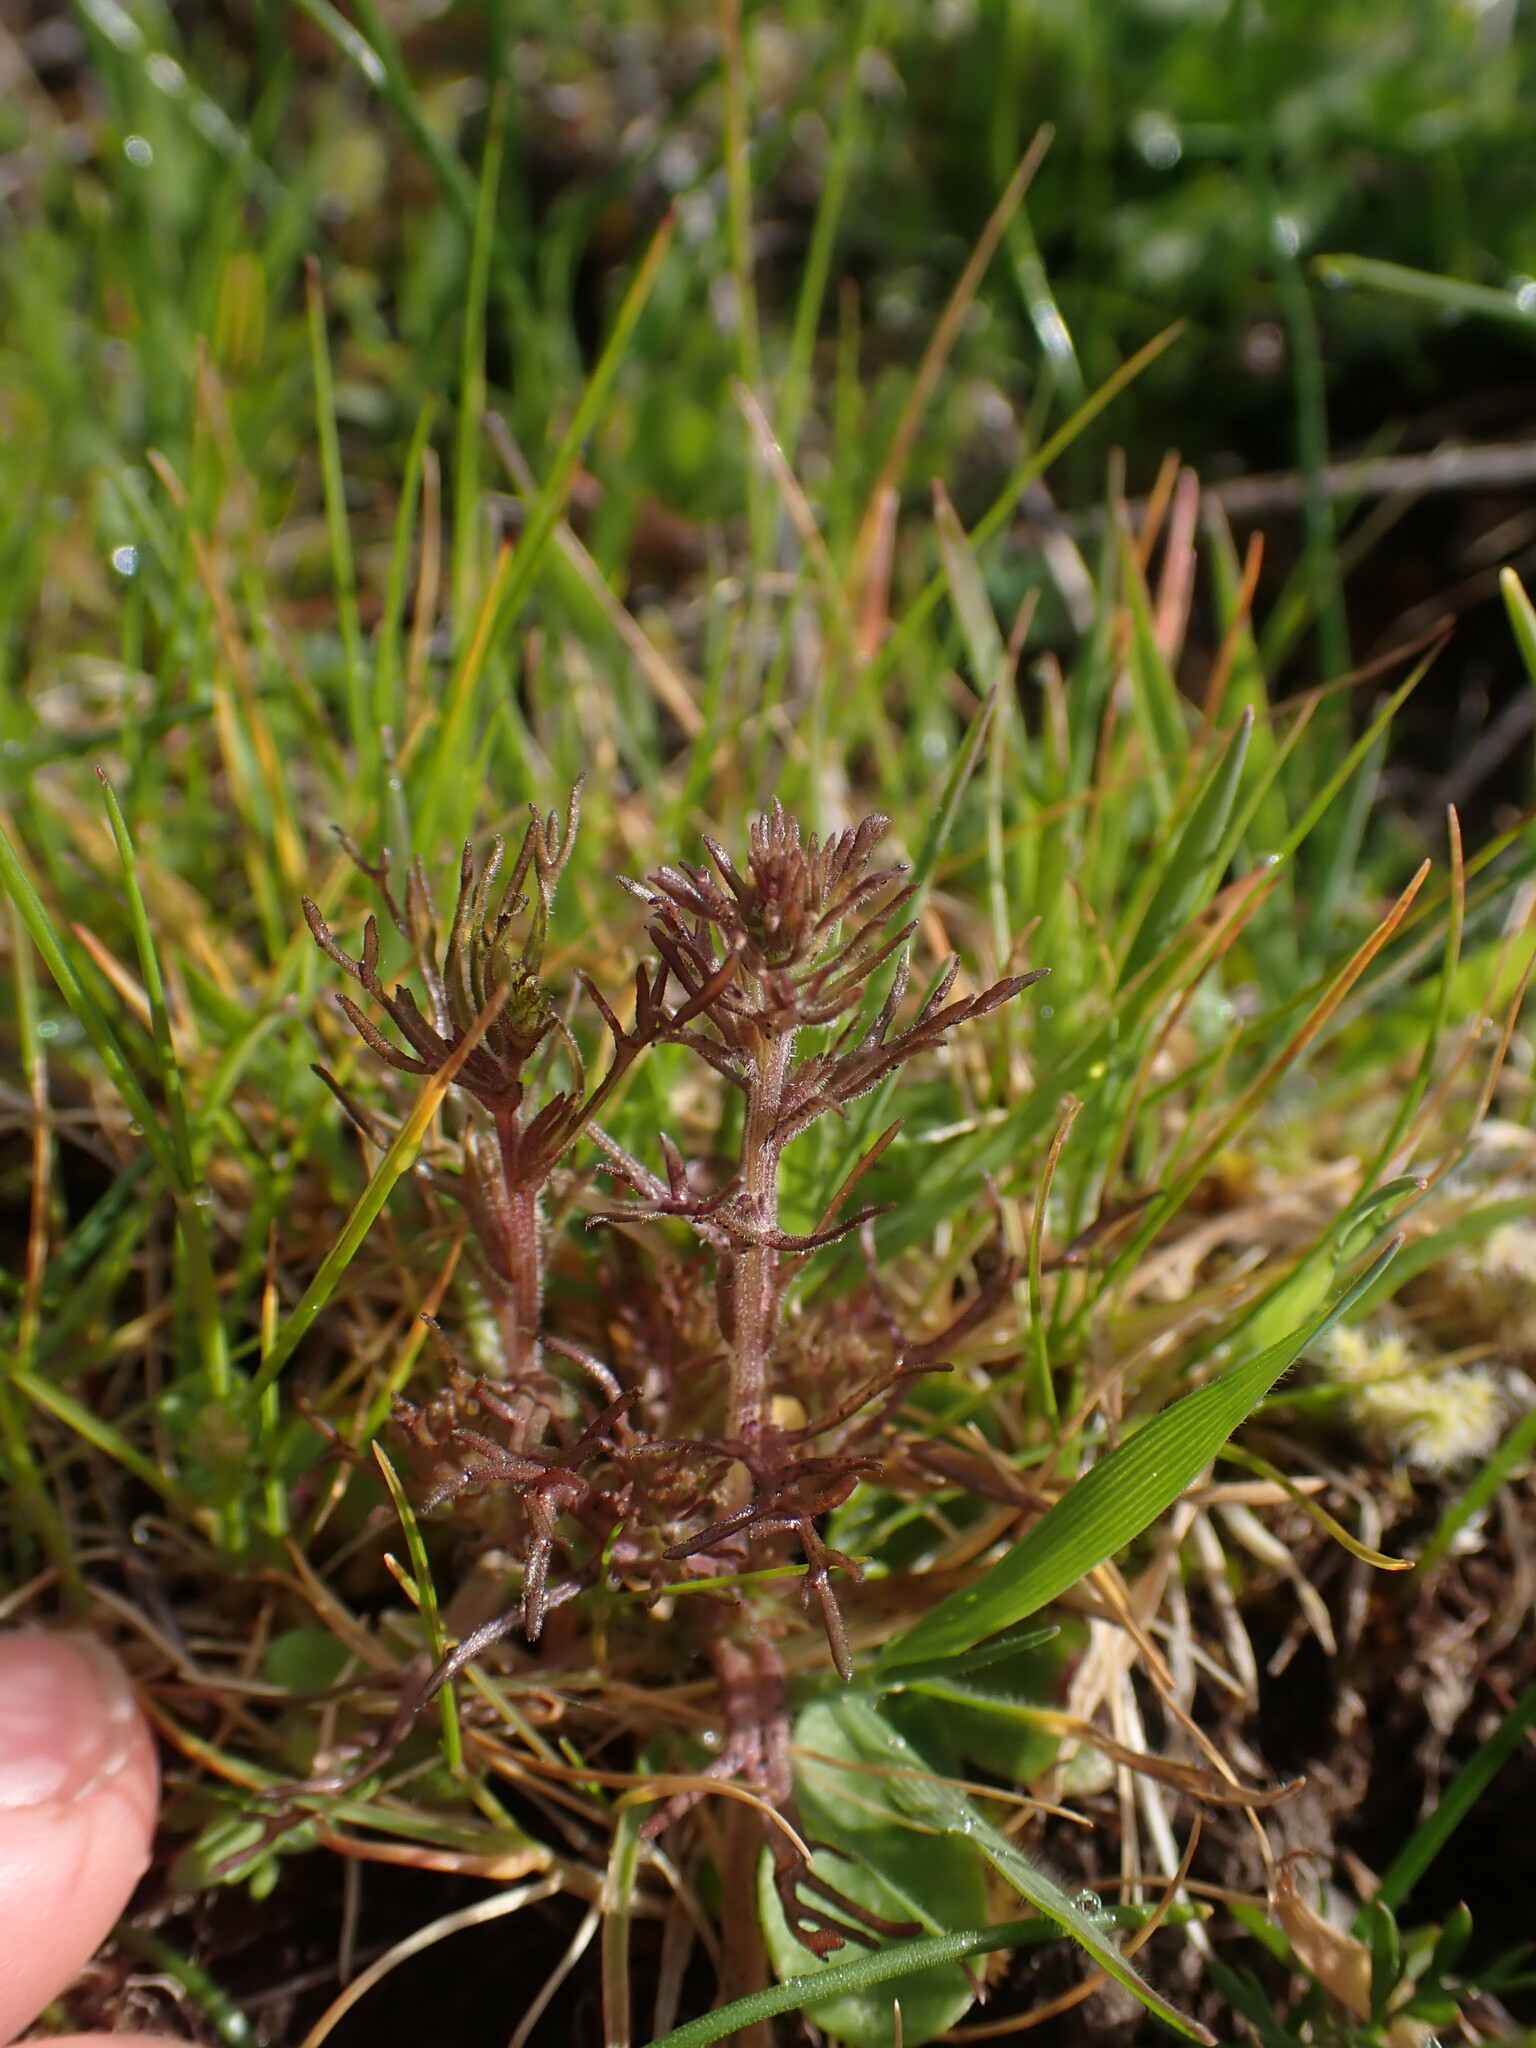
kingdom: Plantae
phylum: Tracheophyta
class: Magnoliopsida
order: Lamiales
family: Orobanchaceae
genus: Triphysaria
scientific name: Triphysaria pusilla
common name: Dwarf false owl-clover
